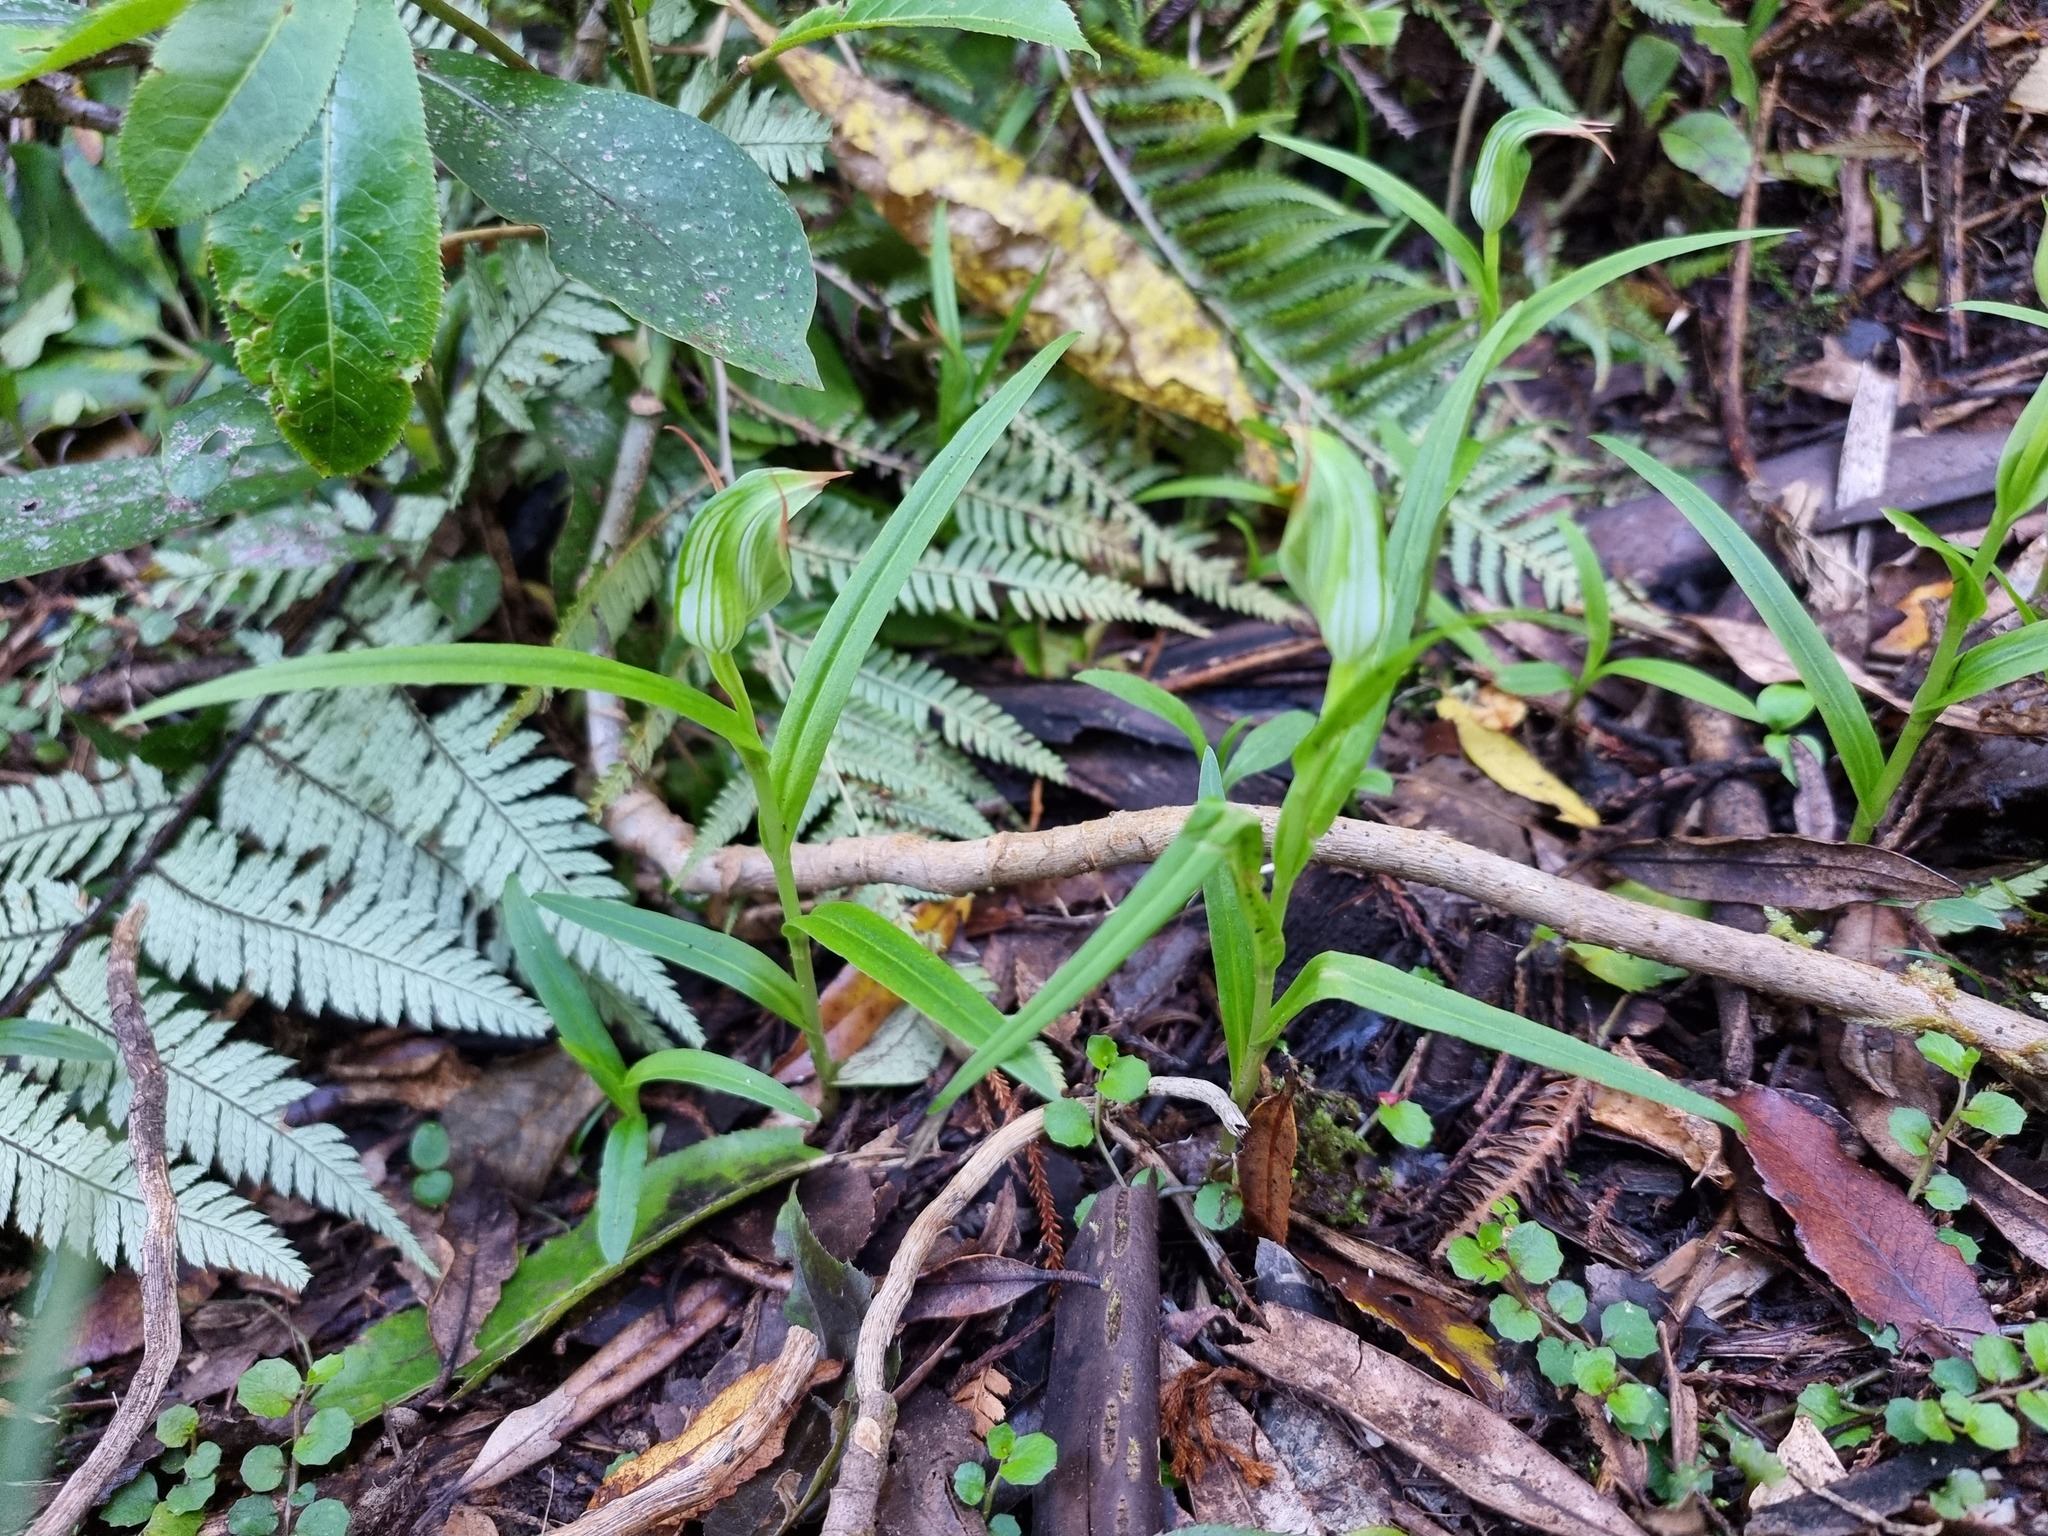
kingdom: Plantae
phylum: Tracheophyta
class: Liliopsida
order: Asparagales
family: Orchidaceae
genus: Pterostylis
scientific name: Pterostylis montana
